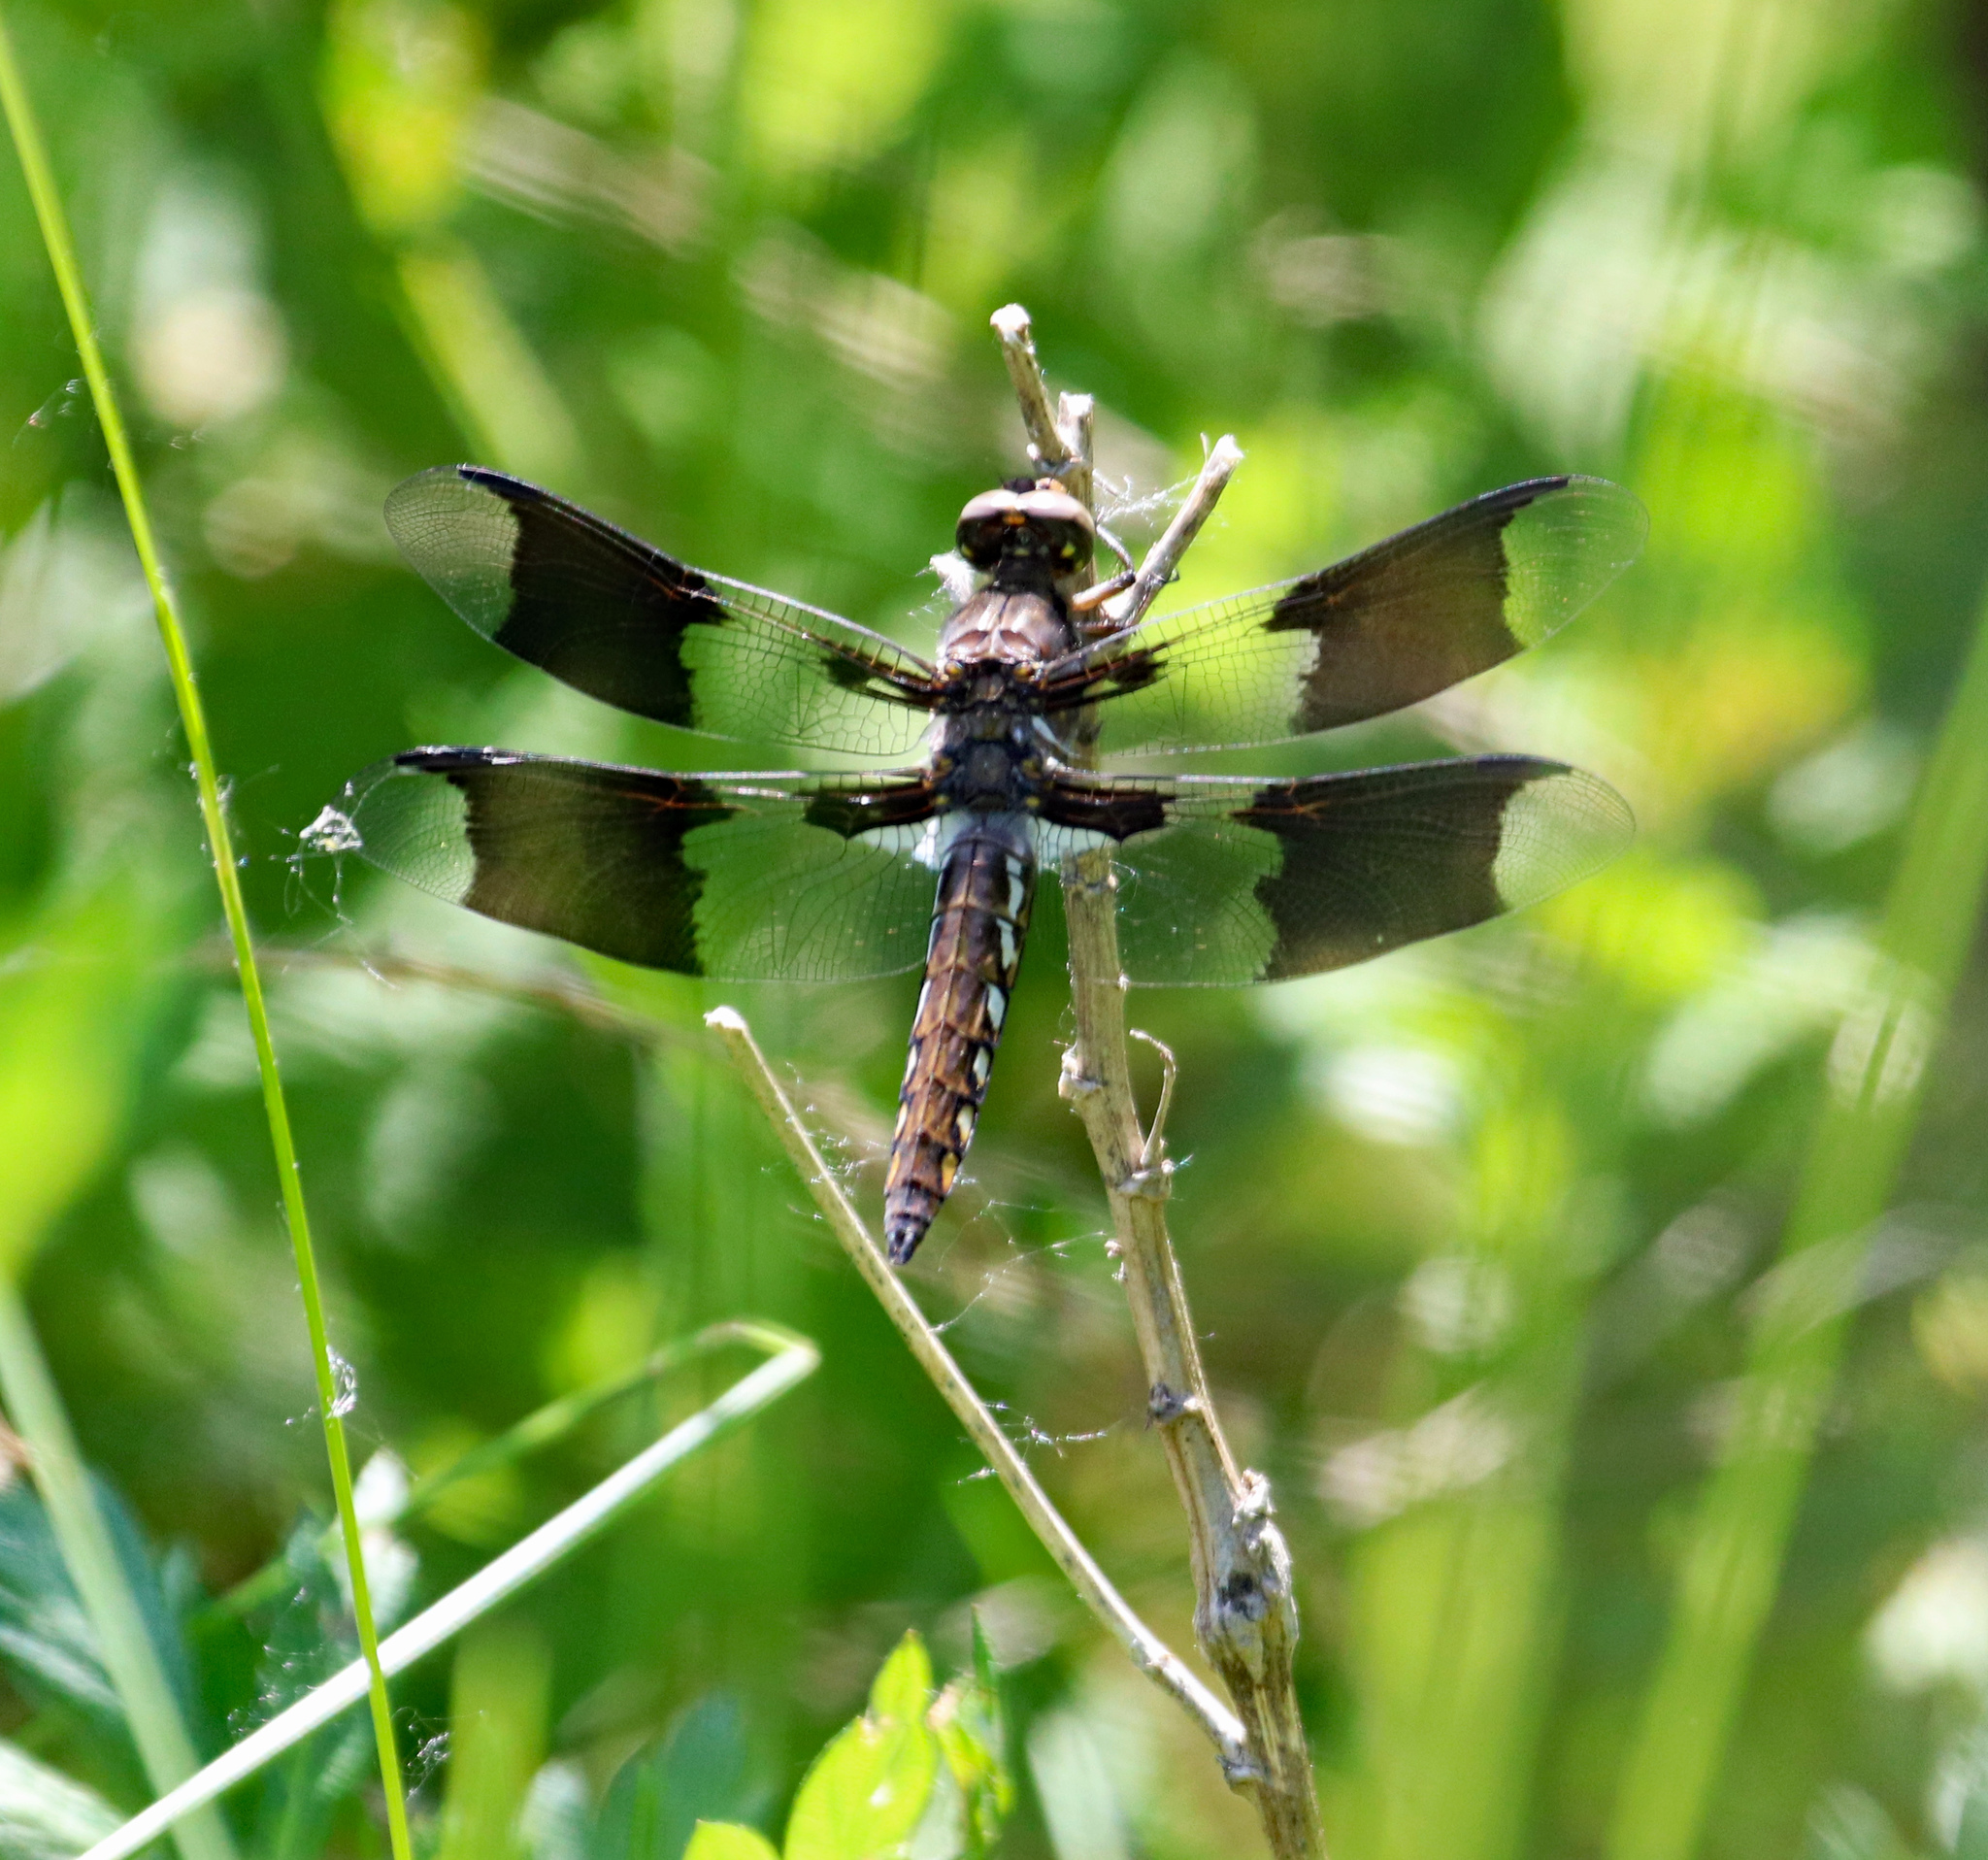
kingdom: Animalia
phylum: Arthropoda
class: Insecta
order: Odonata
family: Libellulidae
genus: Plathemis
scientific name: Plathemis lydia
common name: Common whitetail
